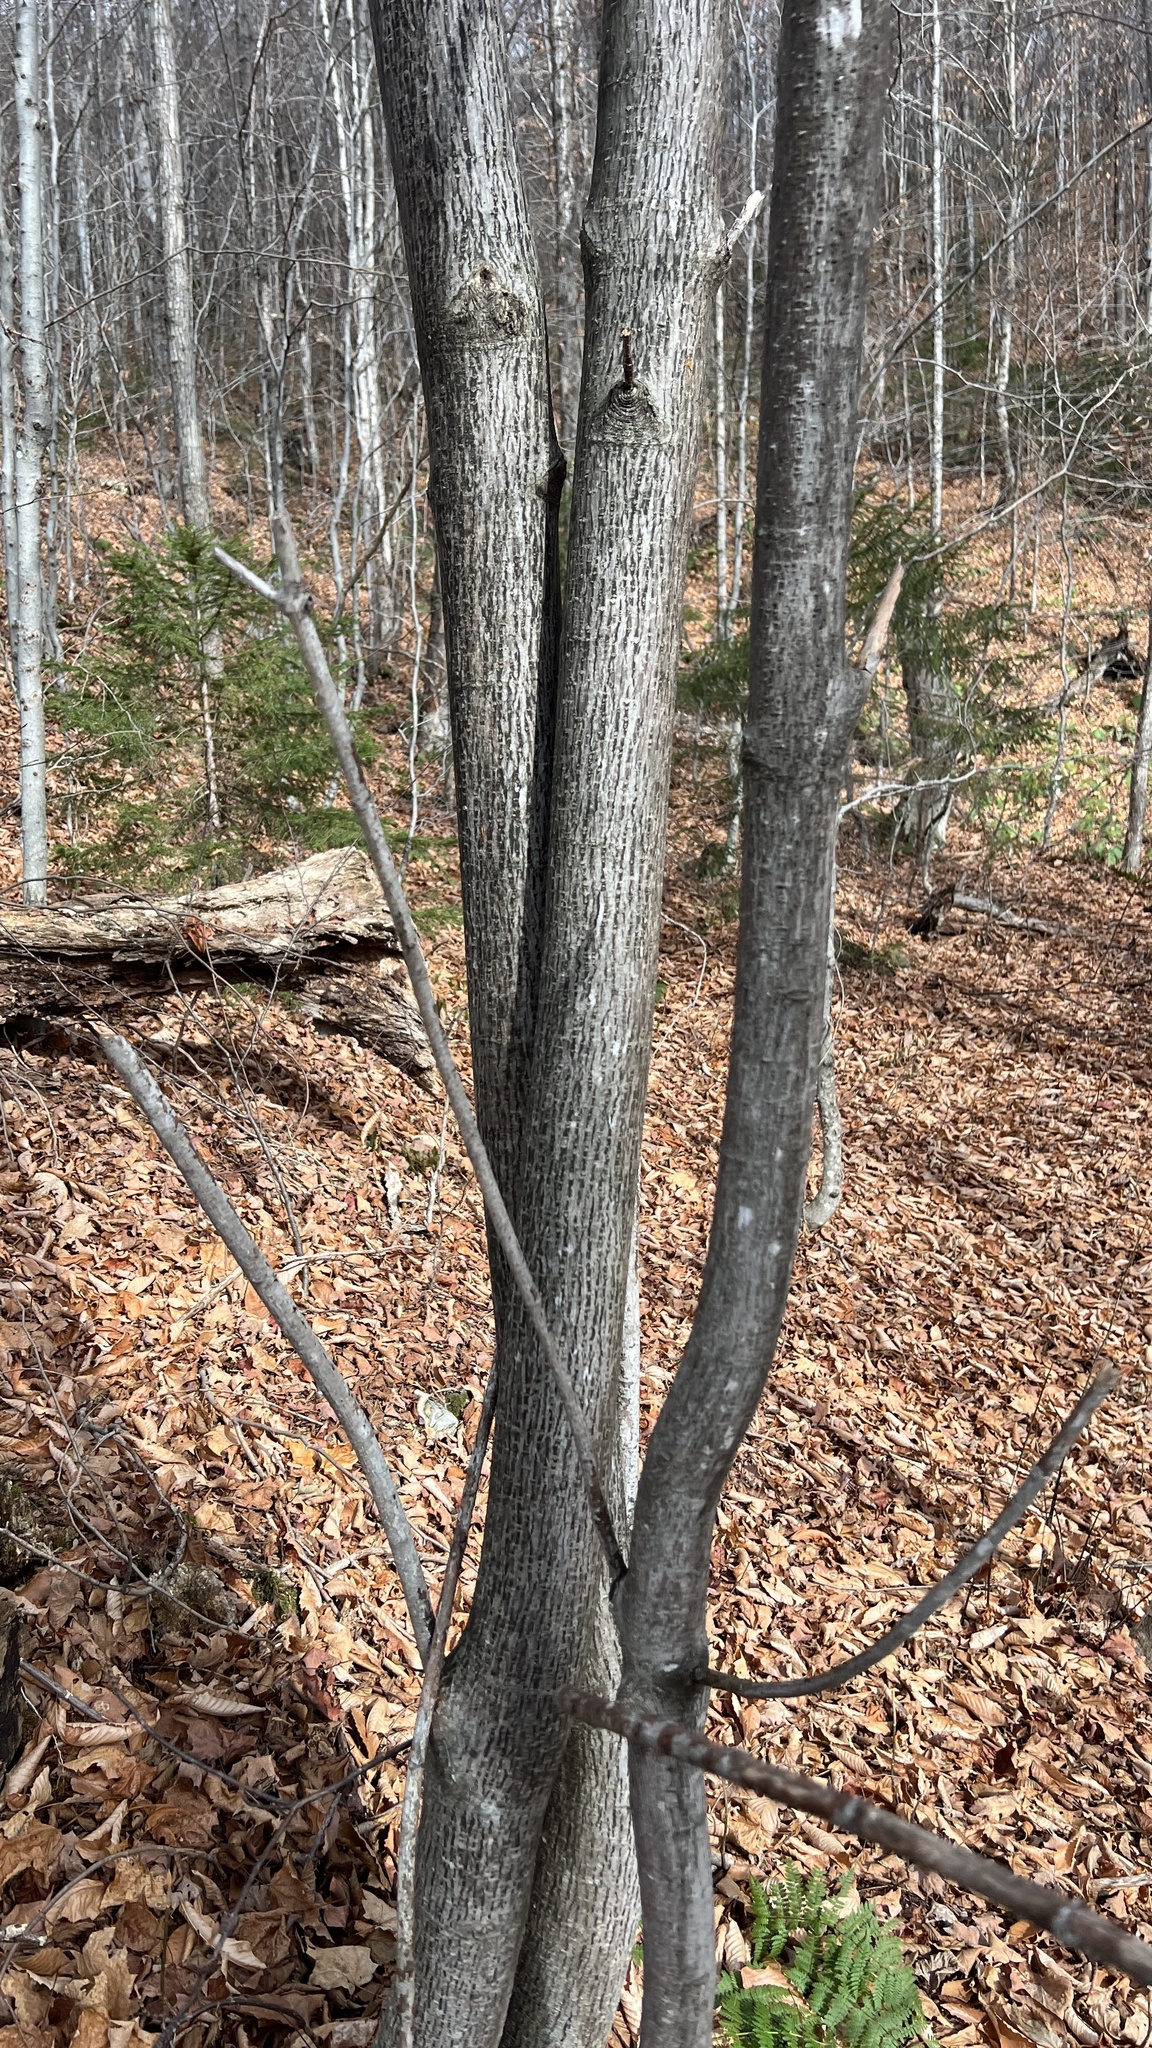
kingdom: Plantae
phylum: Tracheophyta
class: Magnoliopsida
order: Sapindales
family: Sapindaceae
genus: Acer
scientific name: Acer pensylvanicum
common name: Moosewood
